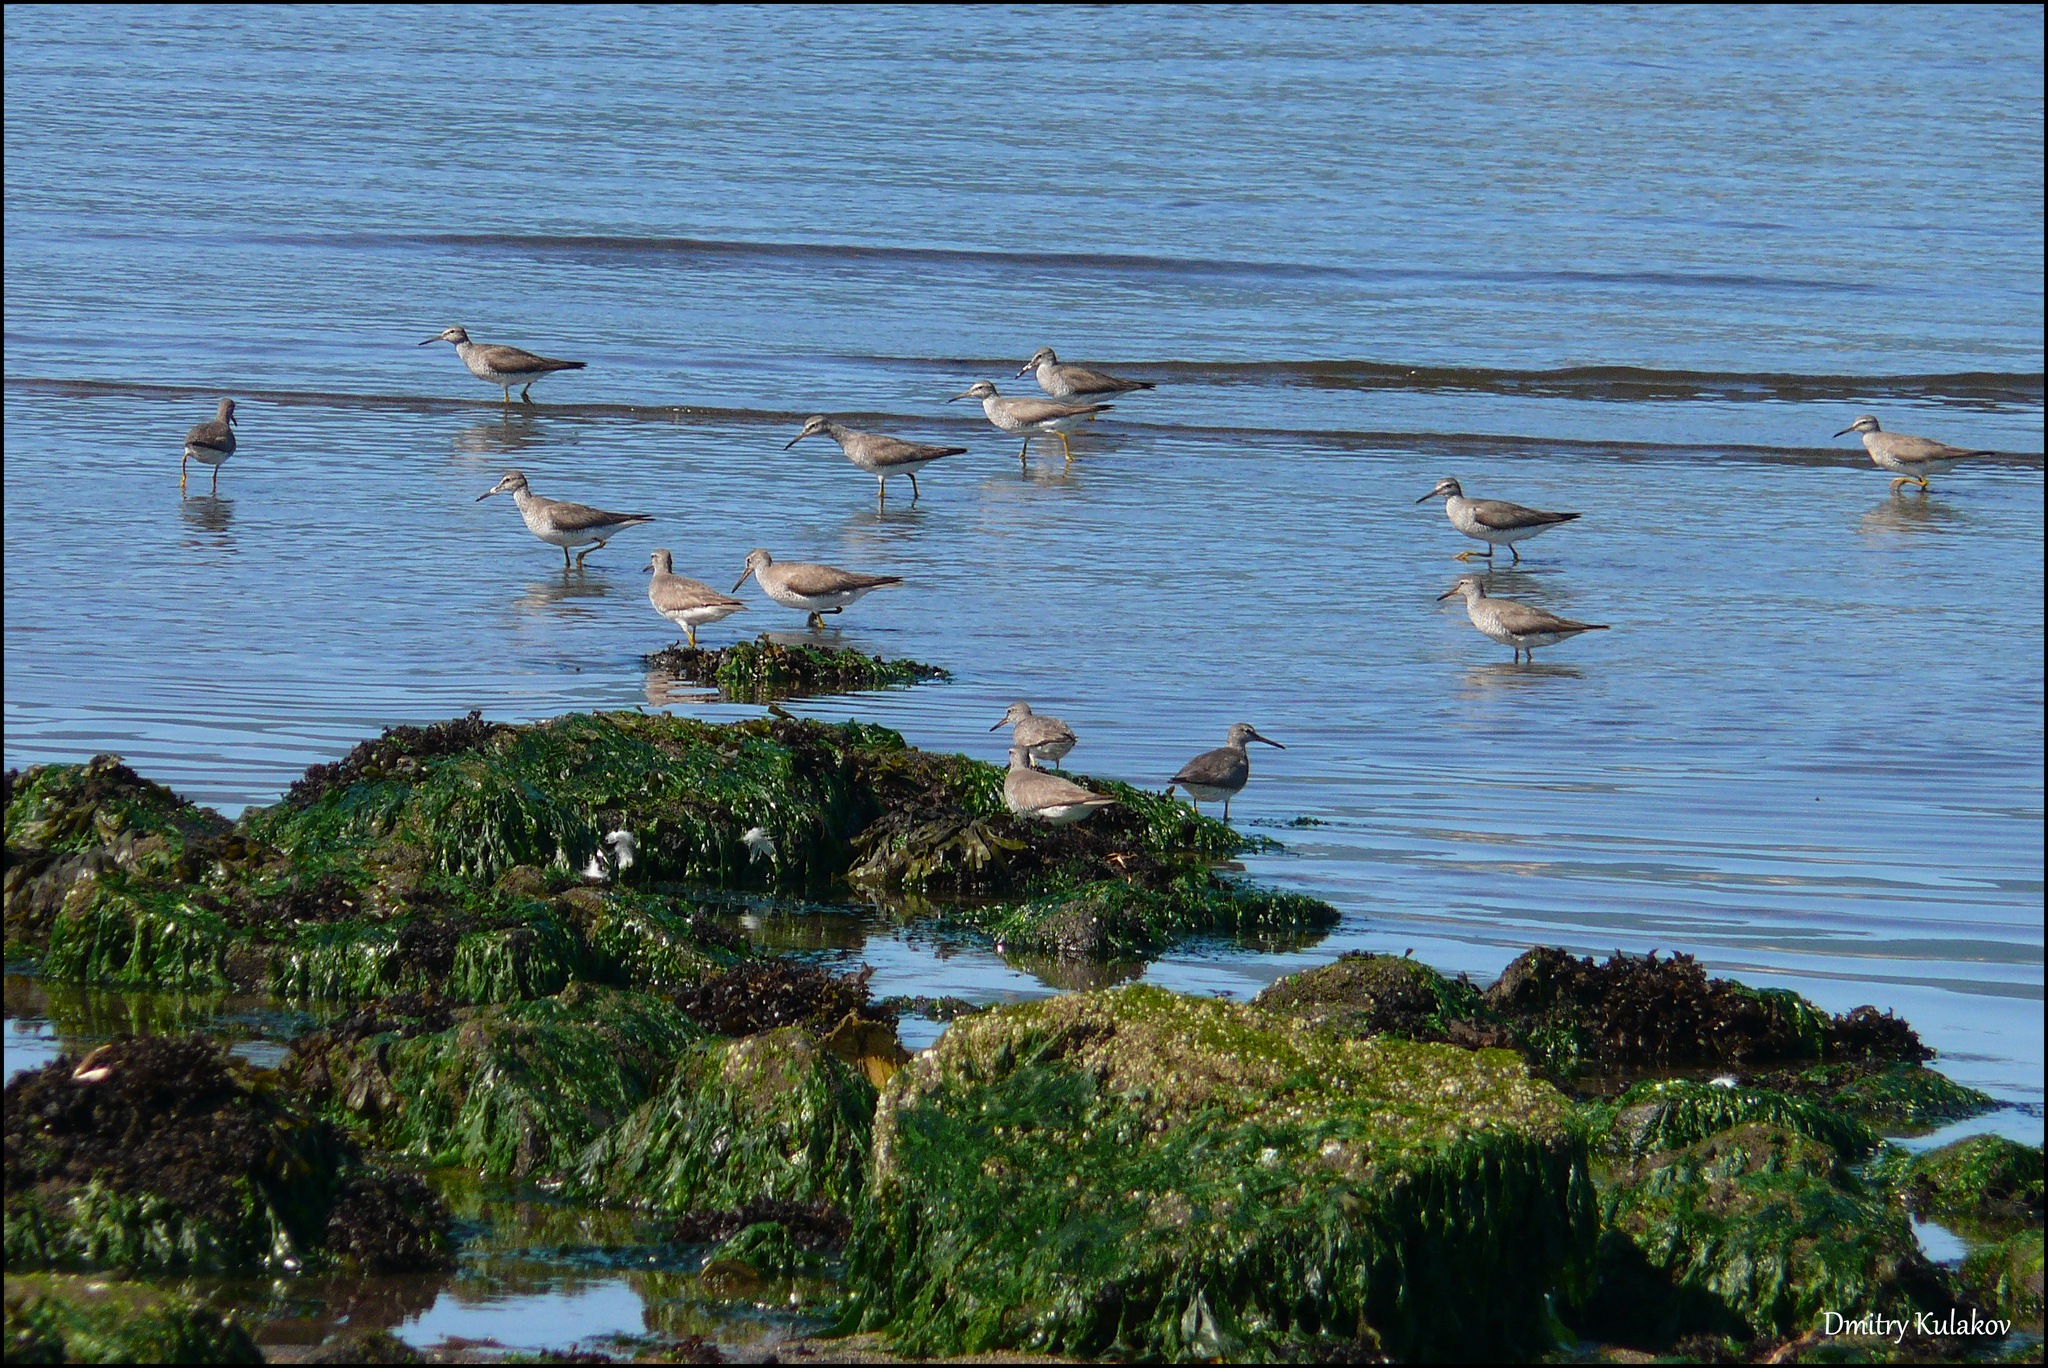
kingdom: Animalia
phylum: Chordata
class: Aves
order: Charadriiformes
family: Scolopacidae
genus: Tringa
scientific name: Tringa brevipes
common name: Grey-tailed tattler
